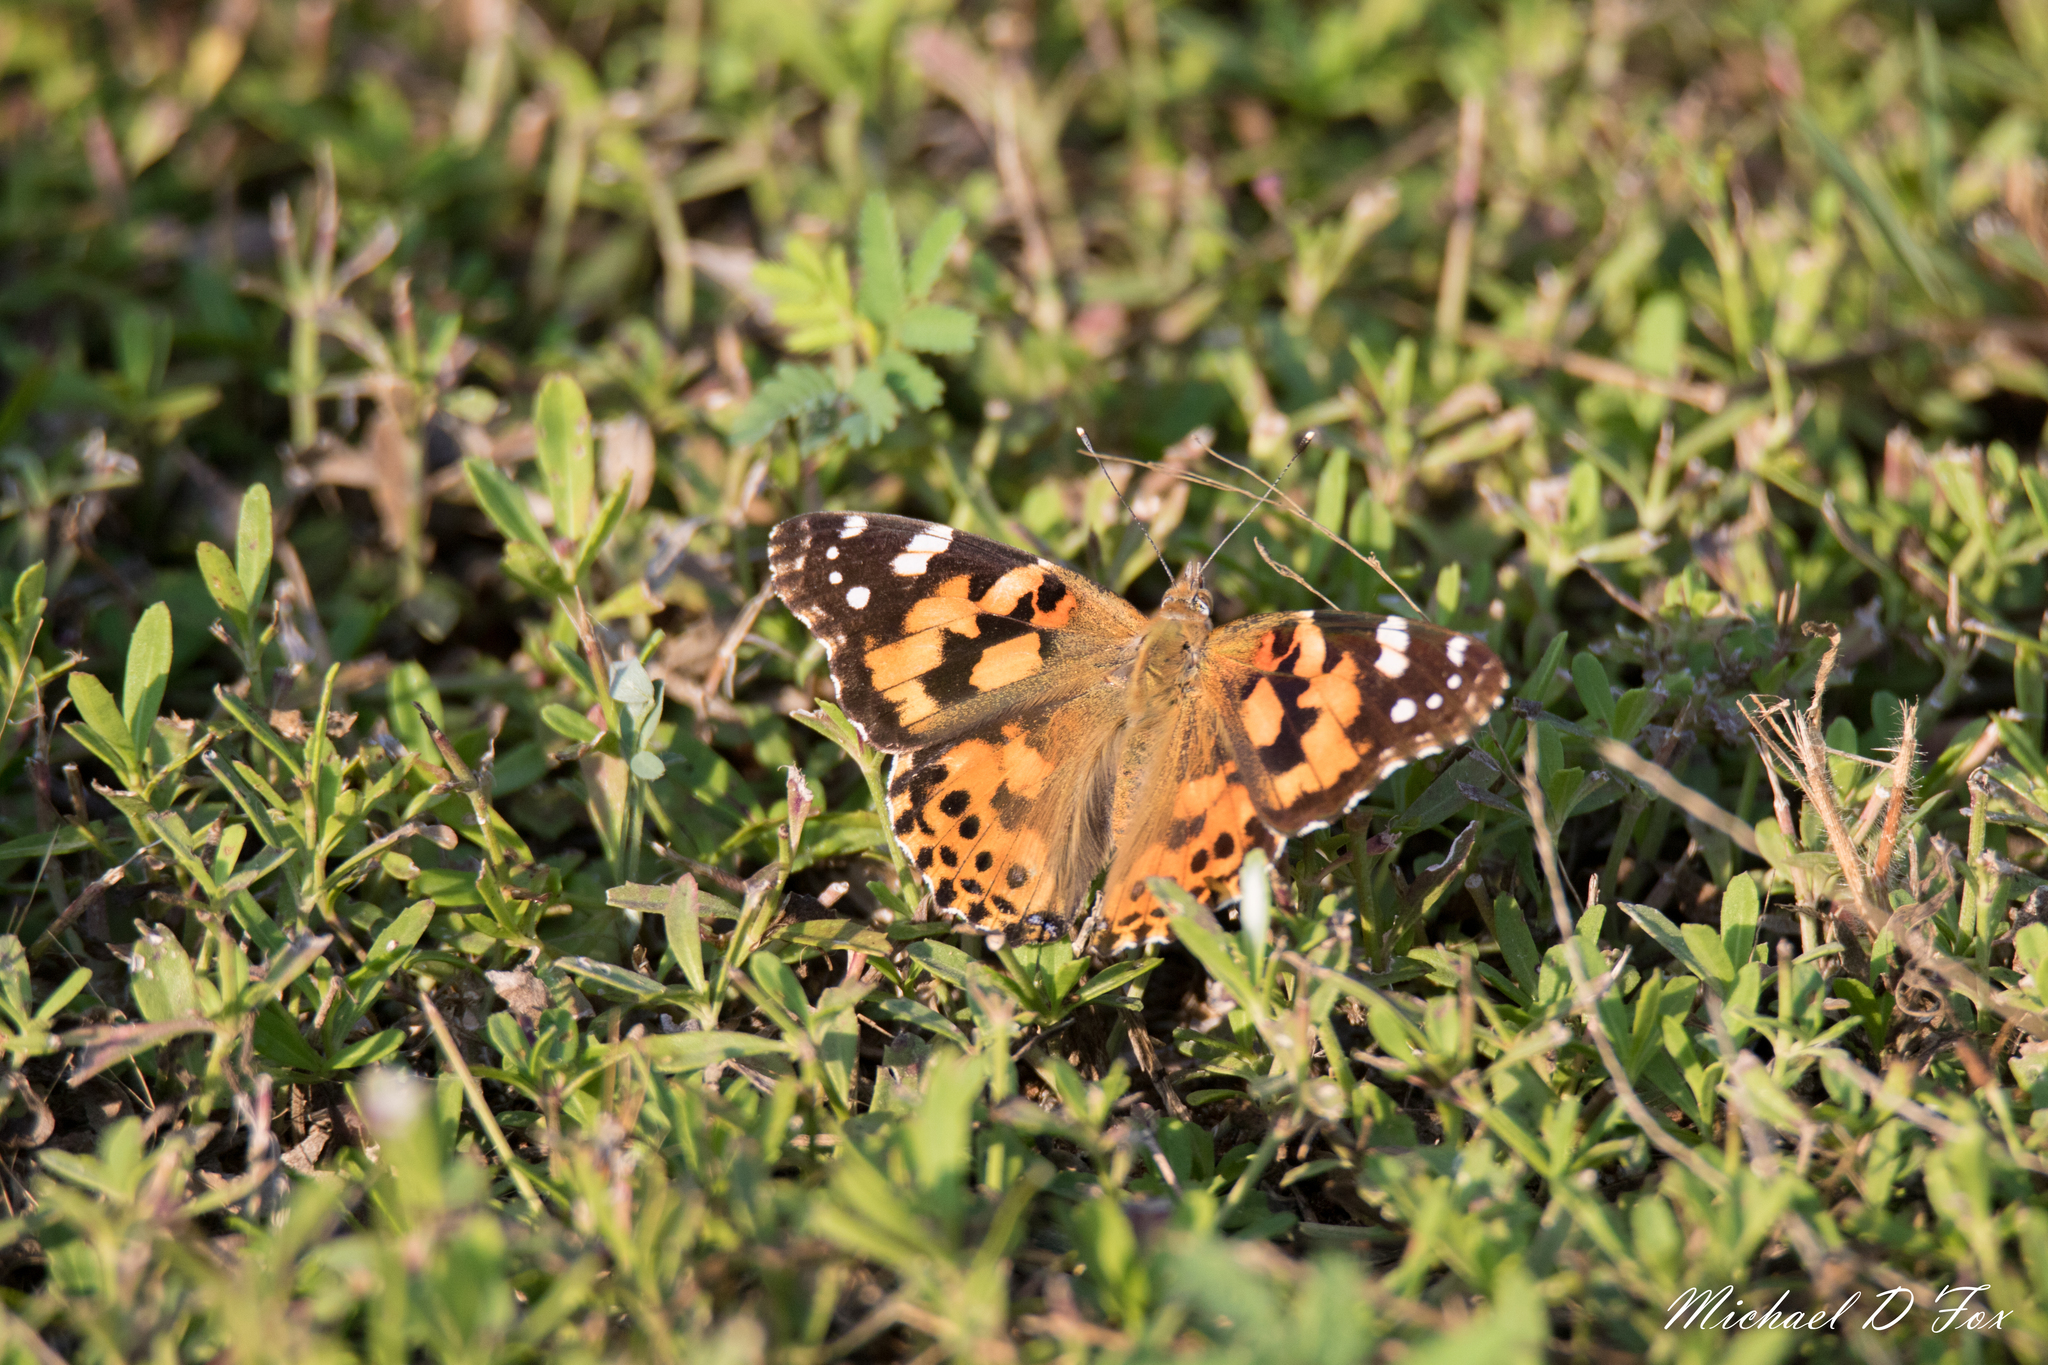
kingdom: Animalia
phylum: Arthropoda
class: Insecta
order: Lepidoptera
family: Nymphalidae
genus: Vanessa
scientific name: Vanessa cardui
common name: Painted lady
